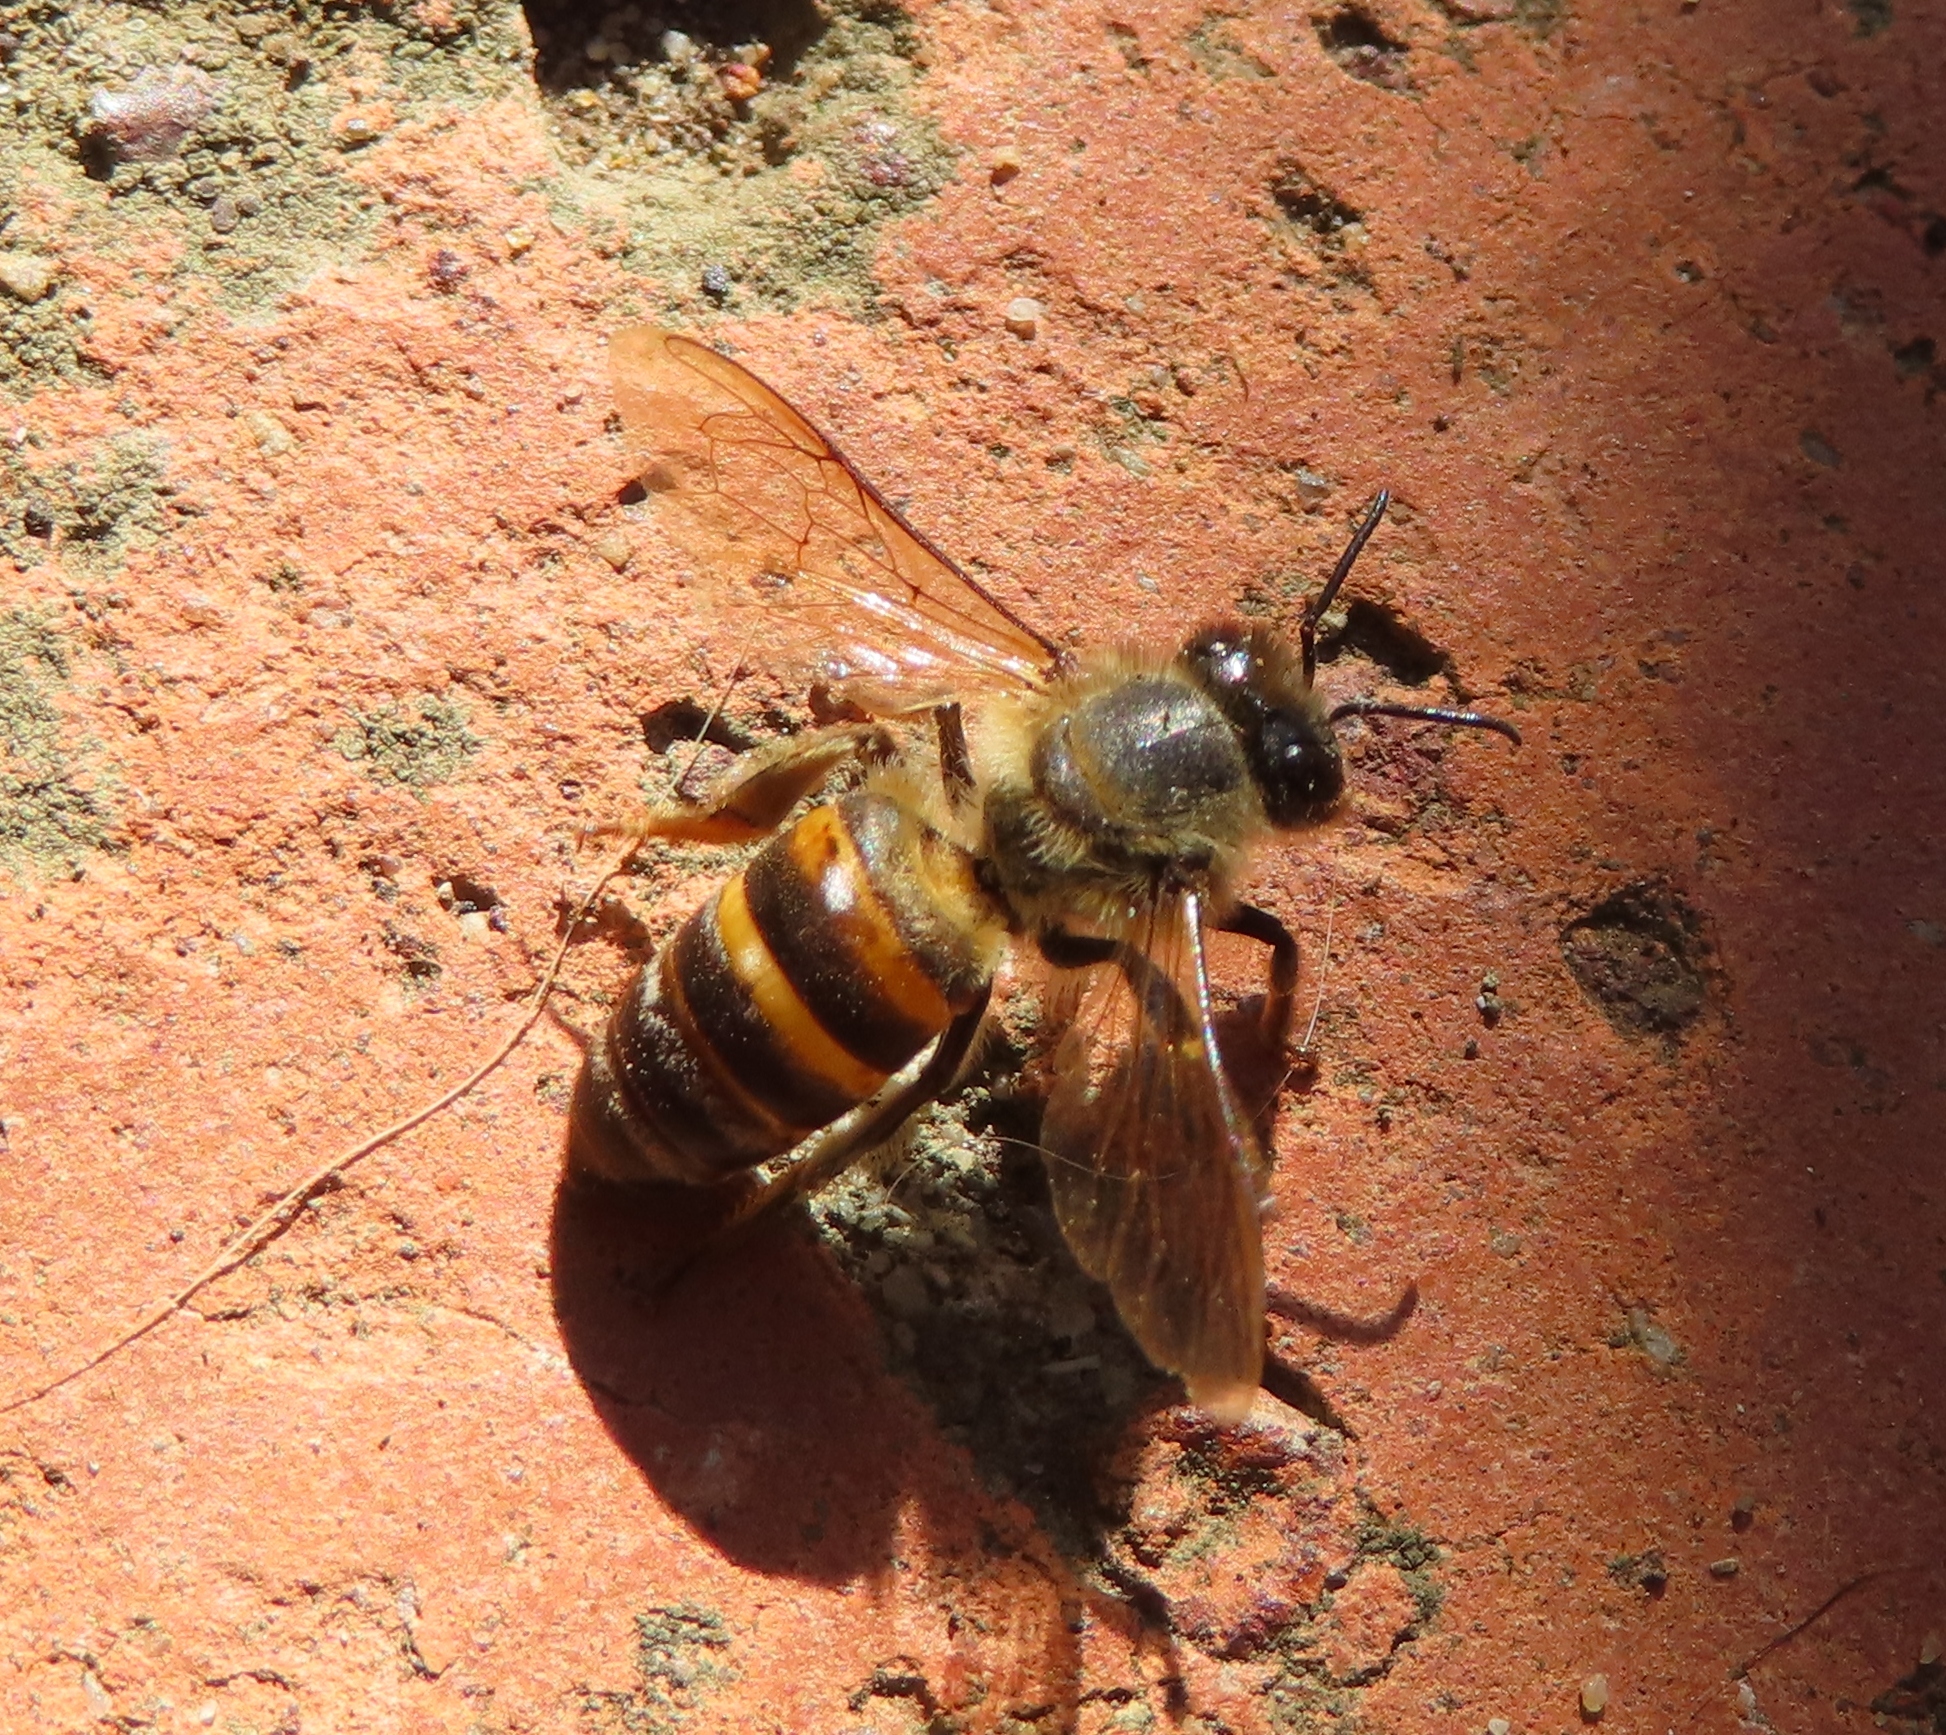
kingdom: Animalia
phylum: Arthropoda
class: Insecta
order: Hymenoptera
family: Apidae
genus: Apis
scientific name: Apis mellifera
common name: Honey bee
